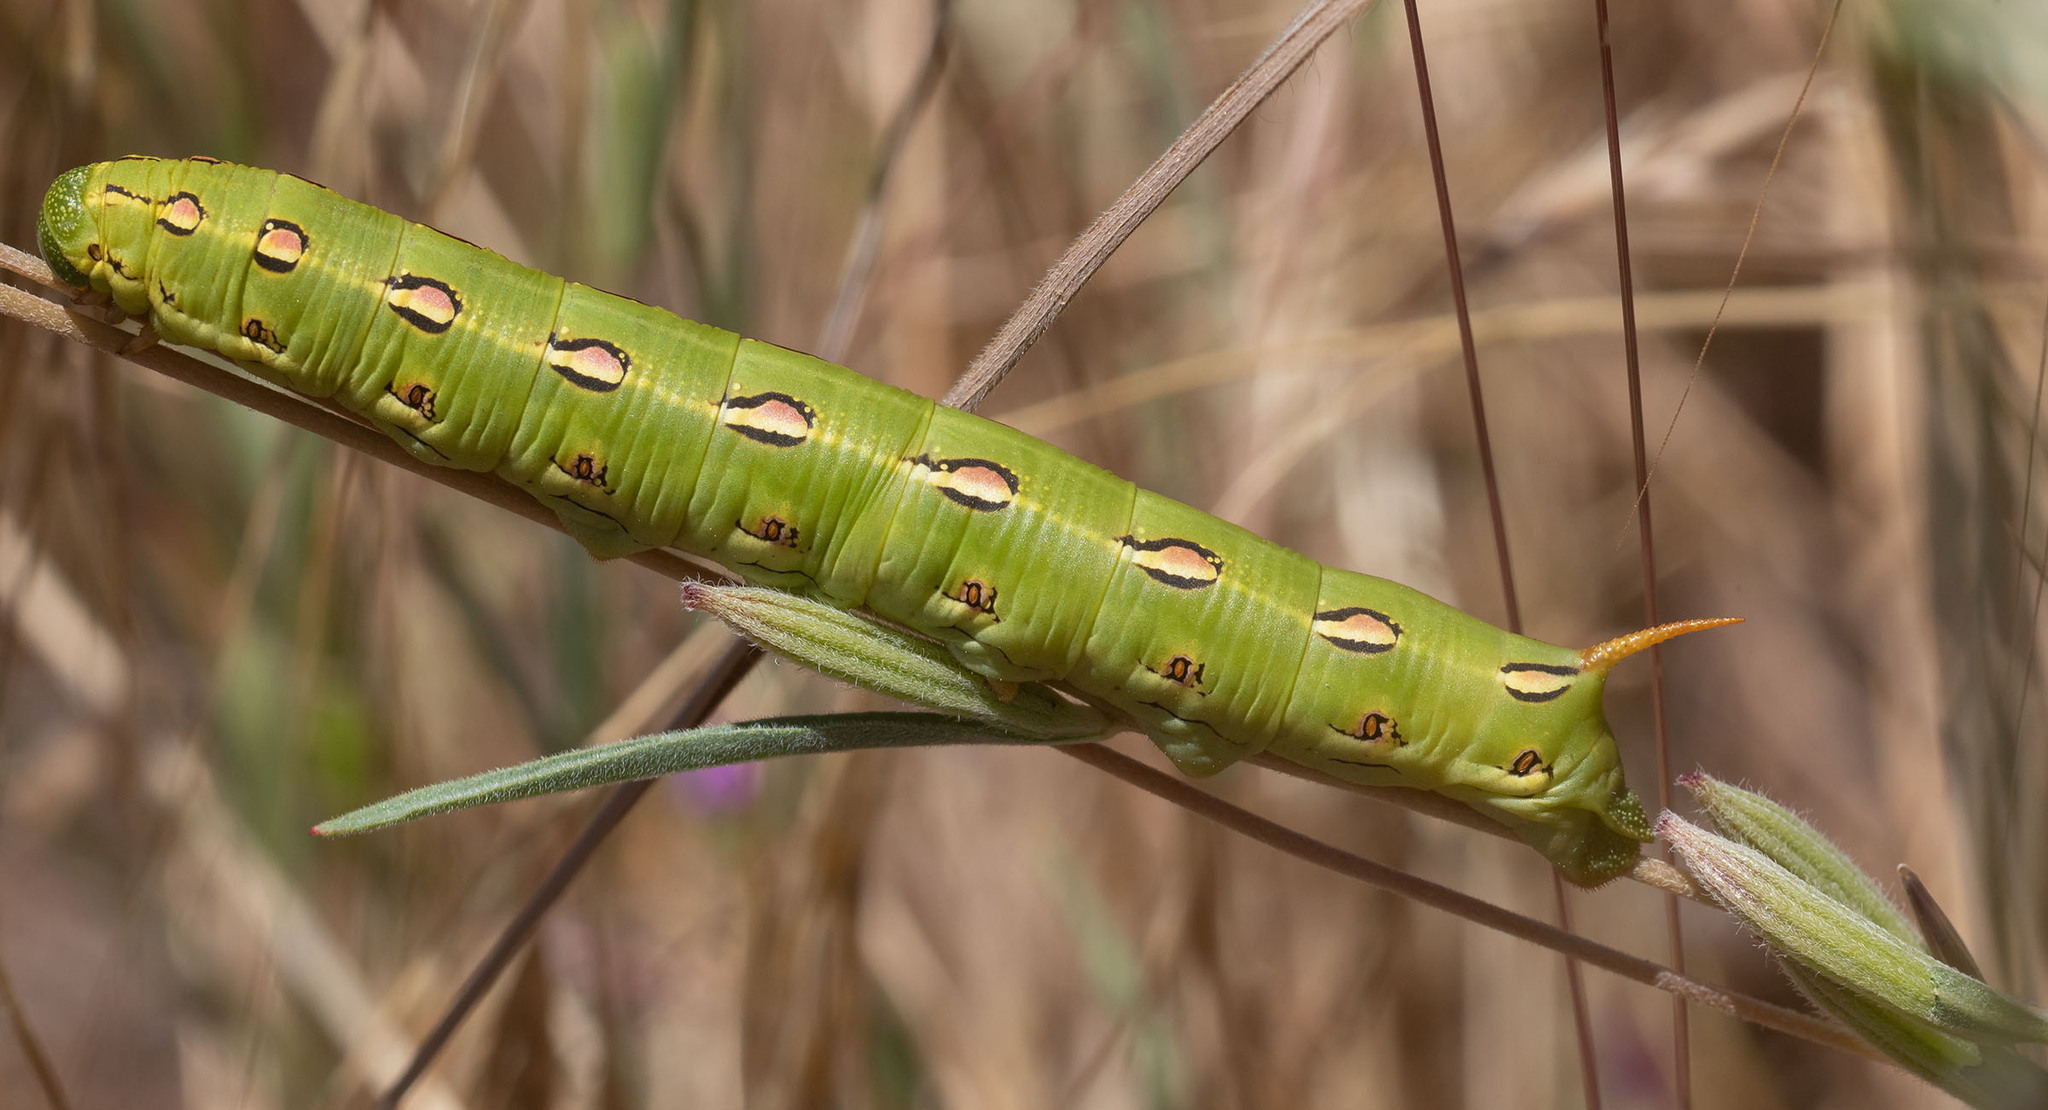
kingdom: Animalia
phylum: Arthropoda
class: Insecta
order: Lepidoptera
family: Sphingidae
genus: Hyles
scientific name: Hyles lineata
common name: White-lined sphinx
